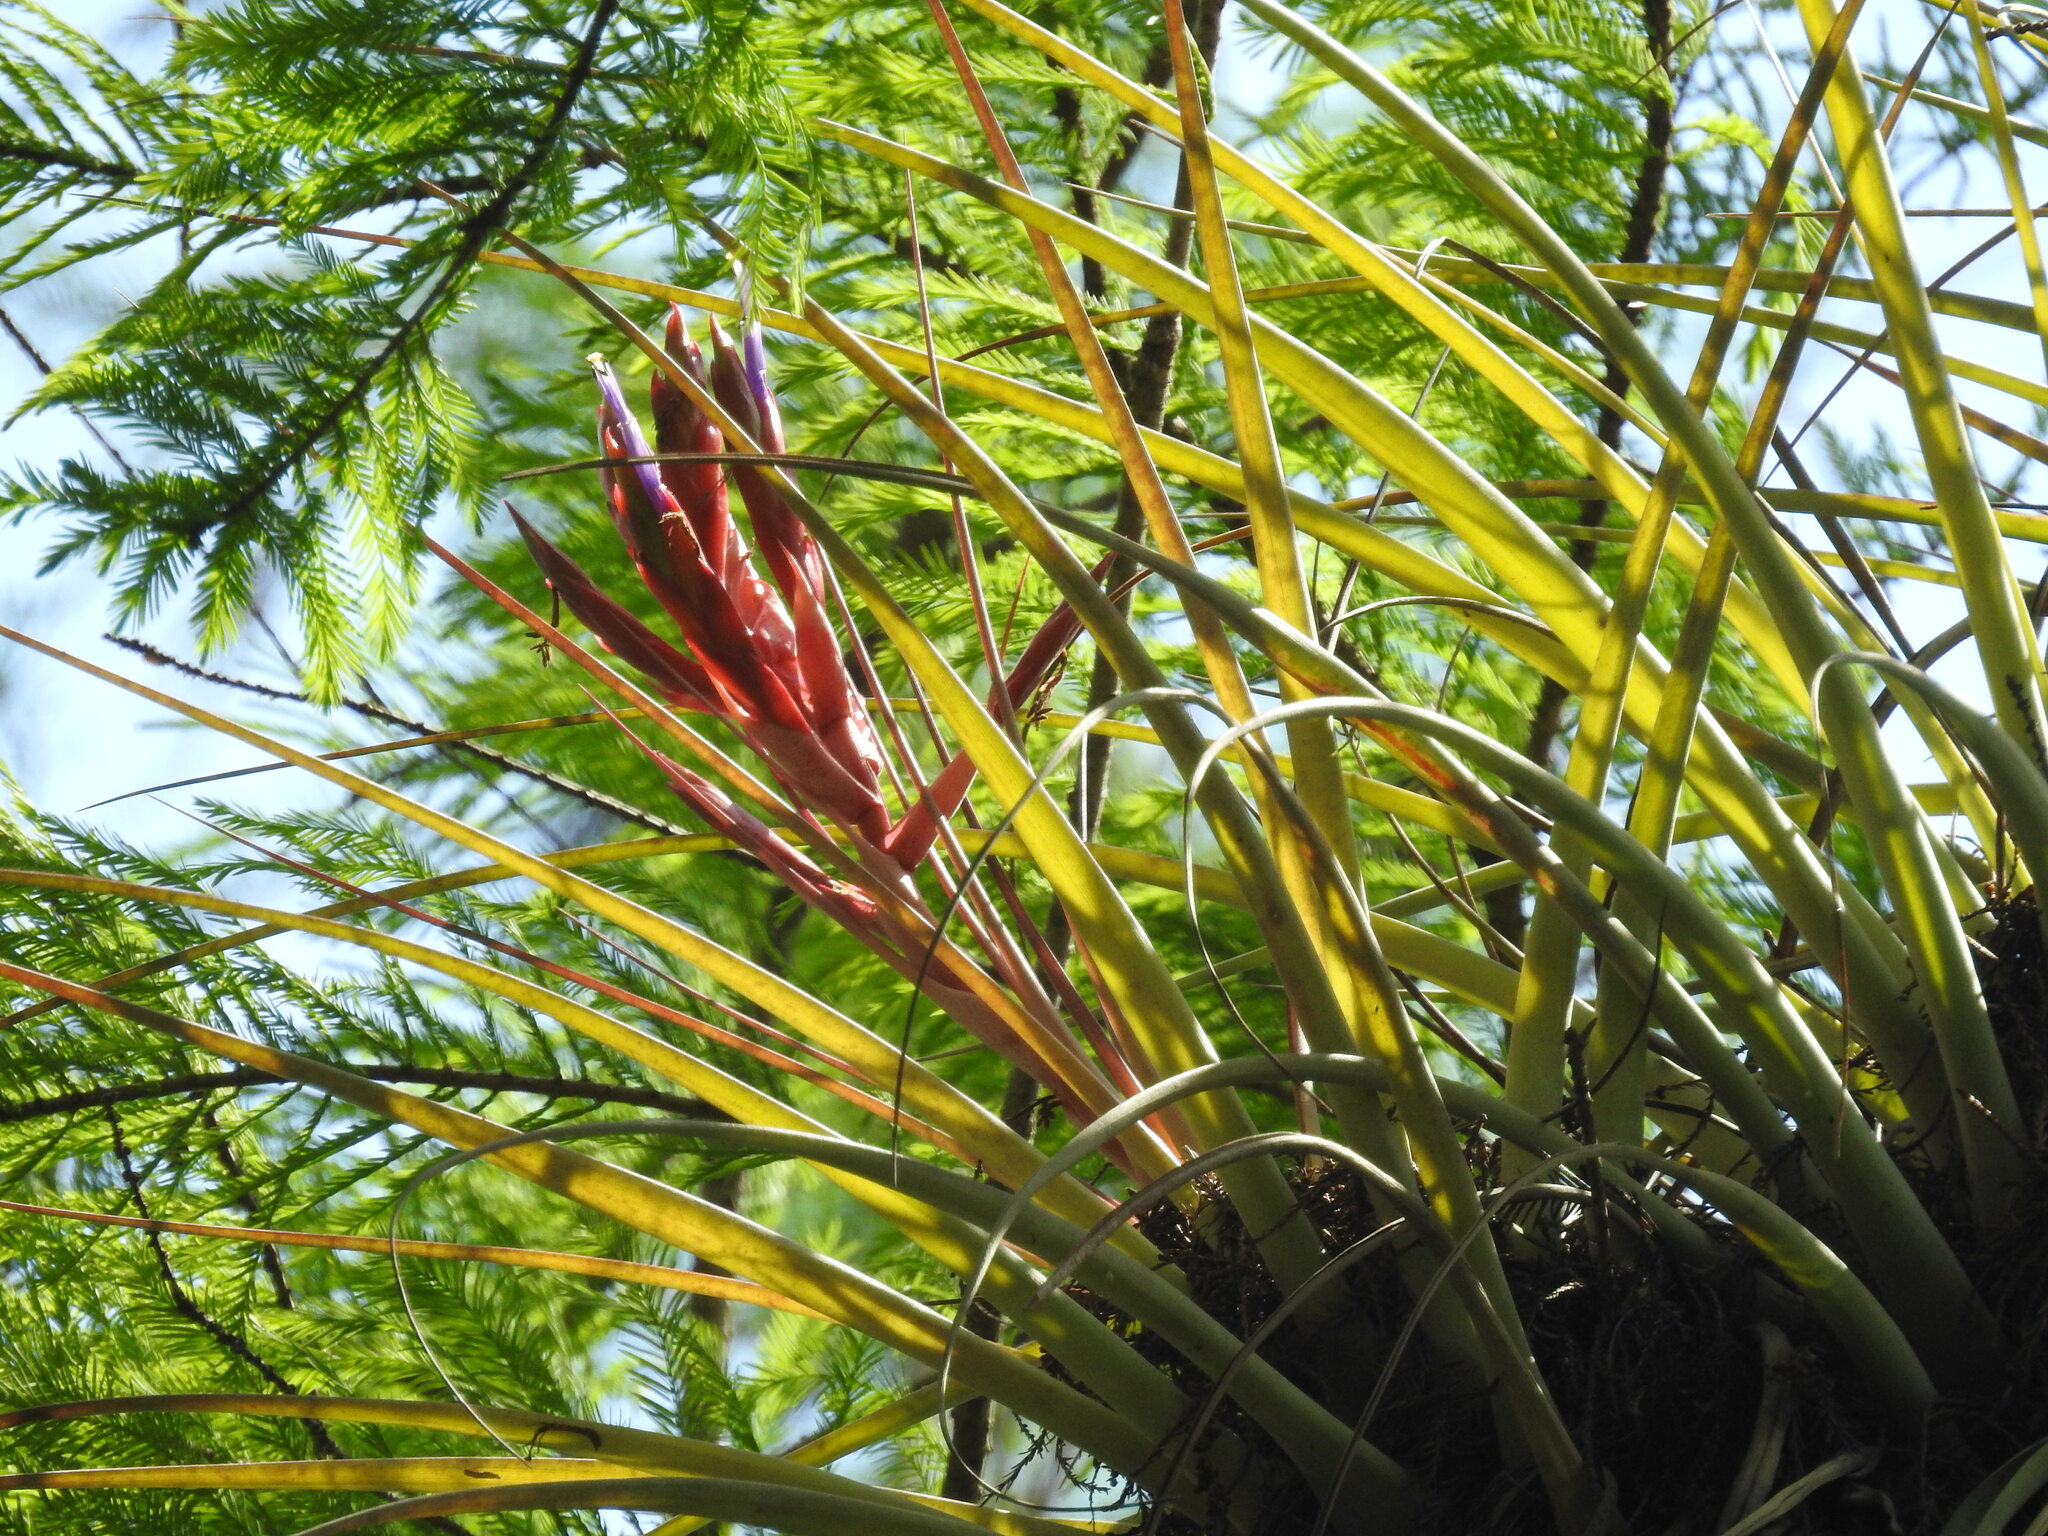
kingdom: Plantae
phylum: Tracheophyta
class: Liliopsida
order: Poales
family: Bromeliaceae
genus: Tillandsia
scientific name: Tillandsia fasciculata
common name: Giant airplant
